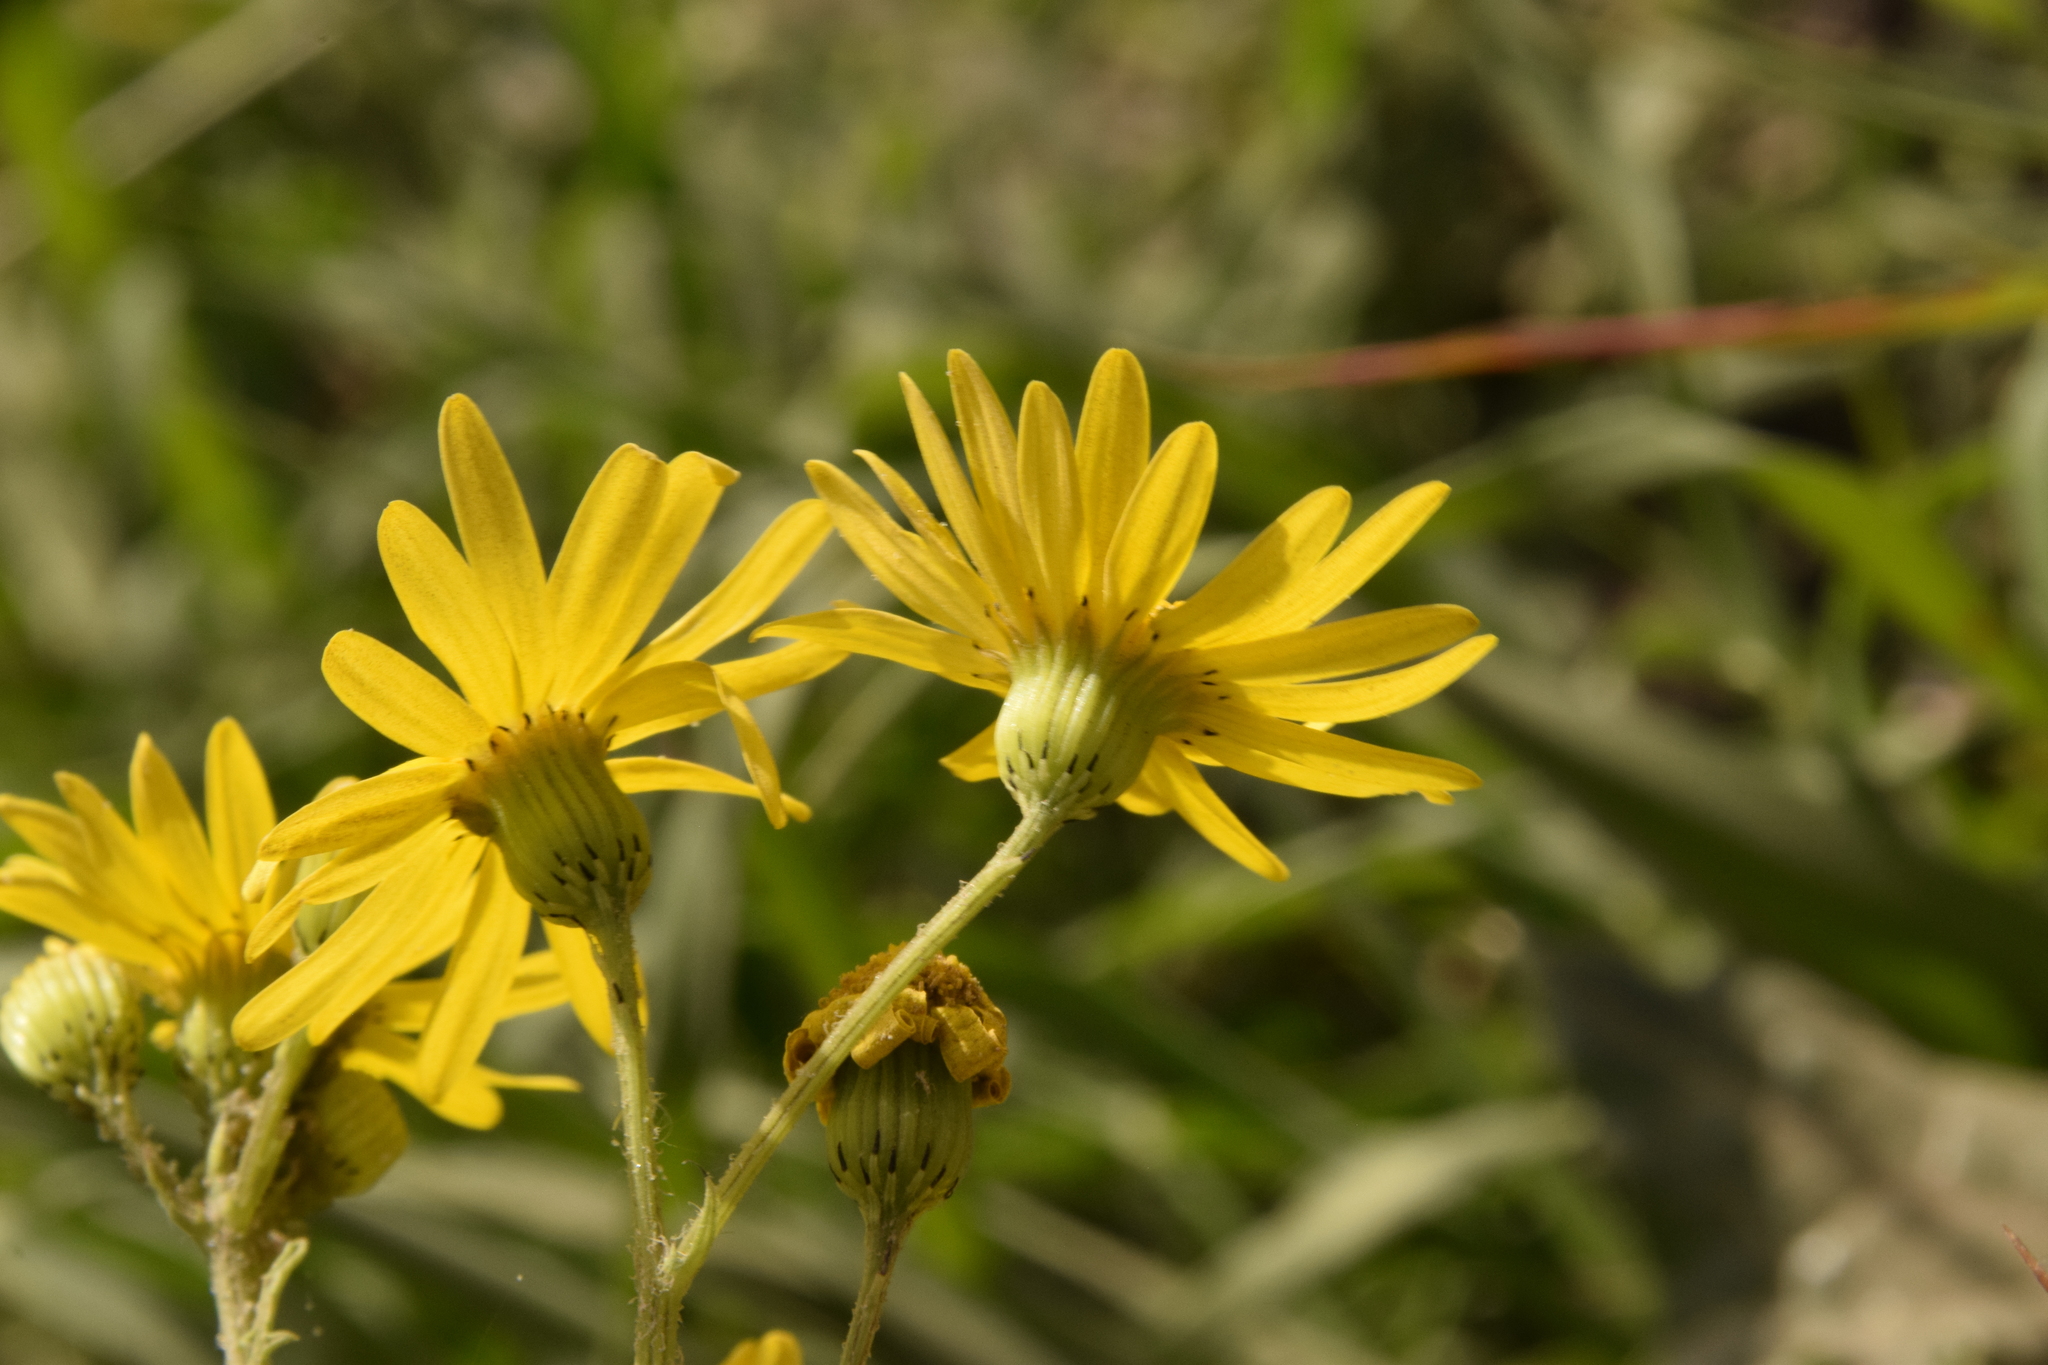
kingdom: Plantae
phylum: Tracheophyta
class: Magnoliopsida
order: Asterales
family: Asteraceae
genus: Senecio
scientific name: Senecio vernalis
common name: Eastern groundsel
